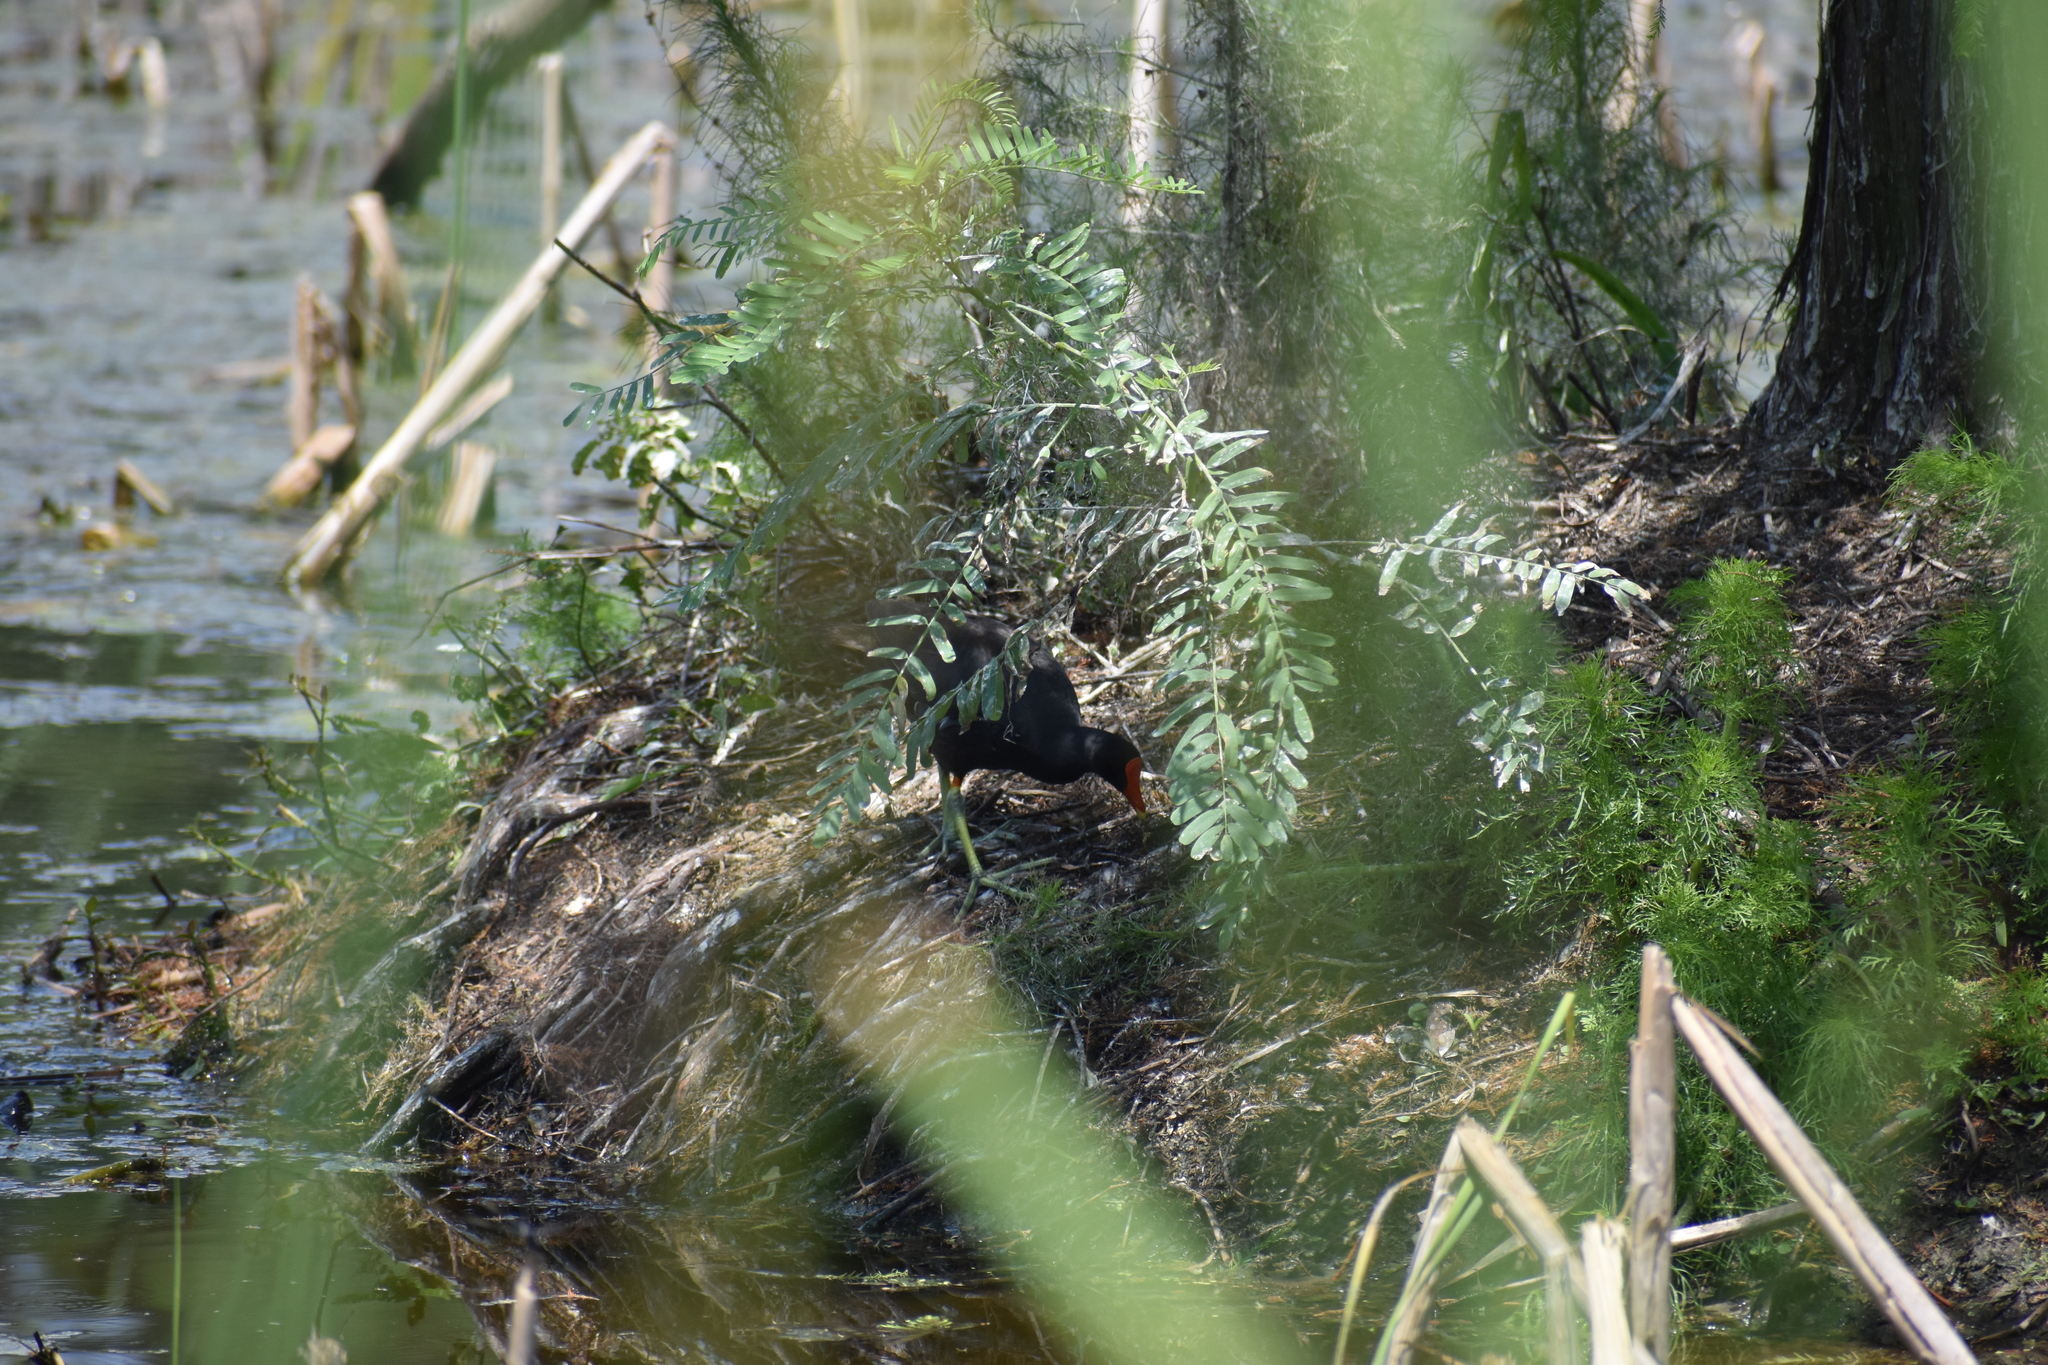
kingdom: Animalia
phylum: Chordata
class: Aves
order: Gruiformes
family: Rallidae
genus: Gallinula
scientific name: Gallinula chloropus
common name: Common moorhen
